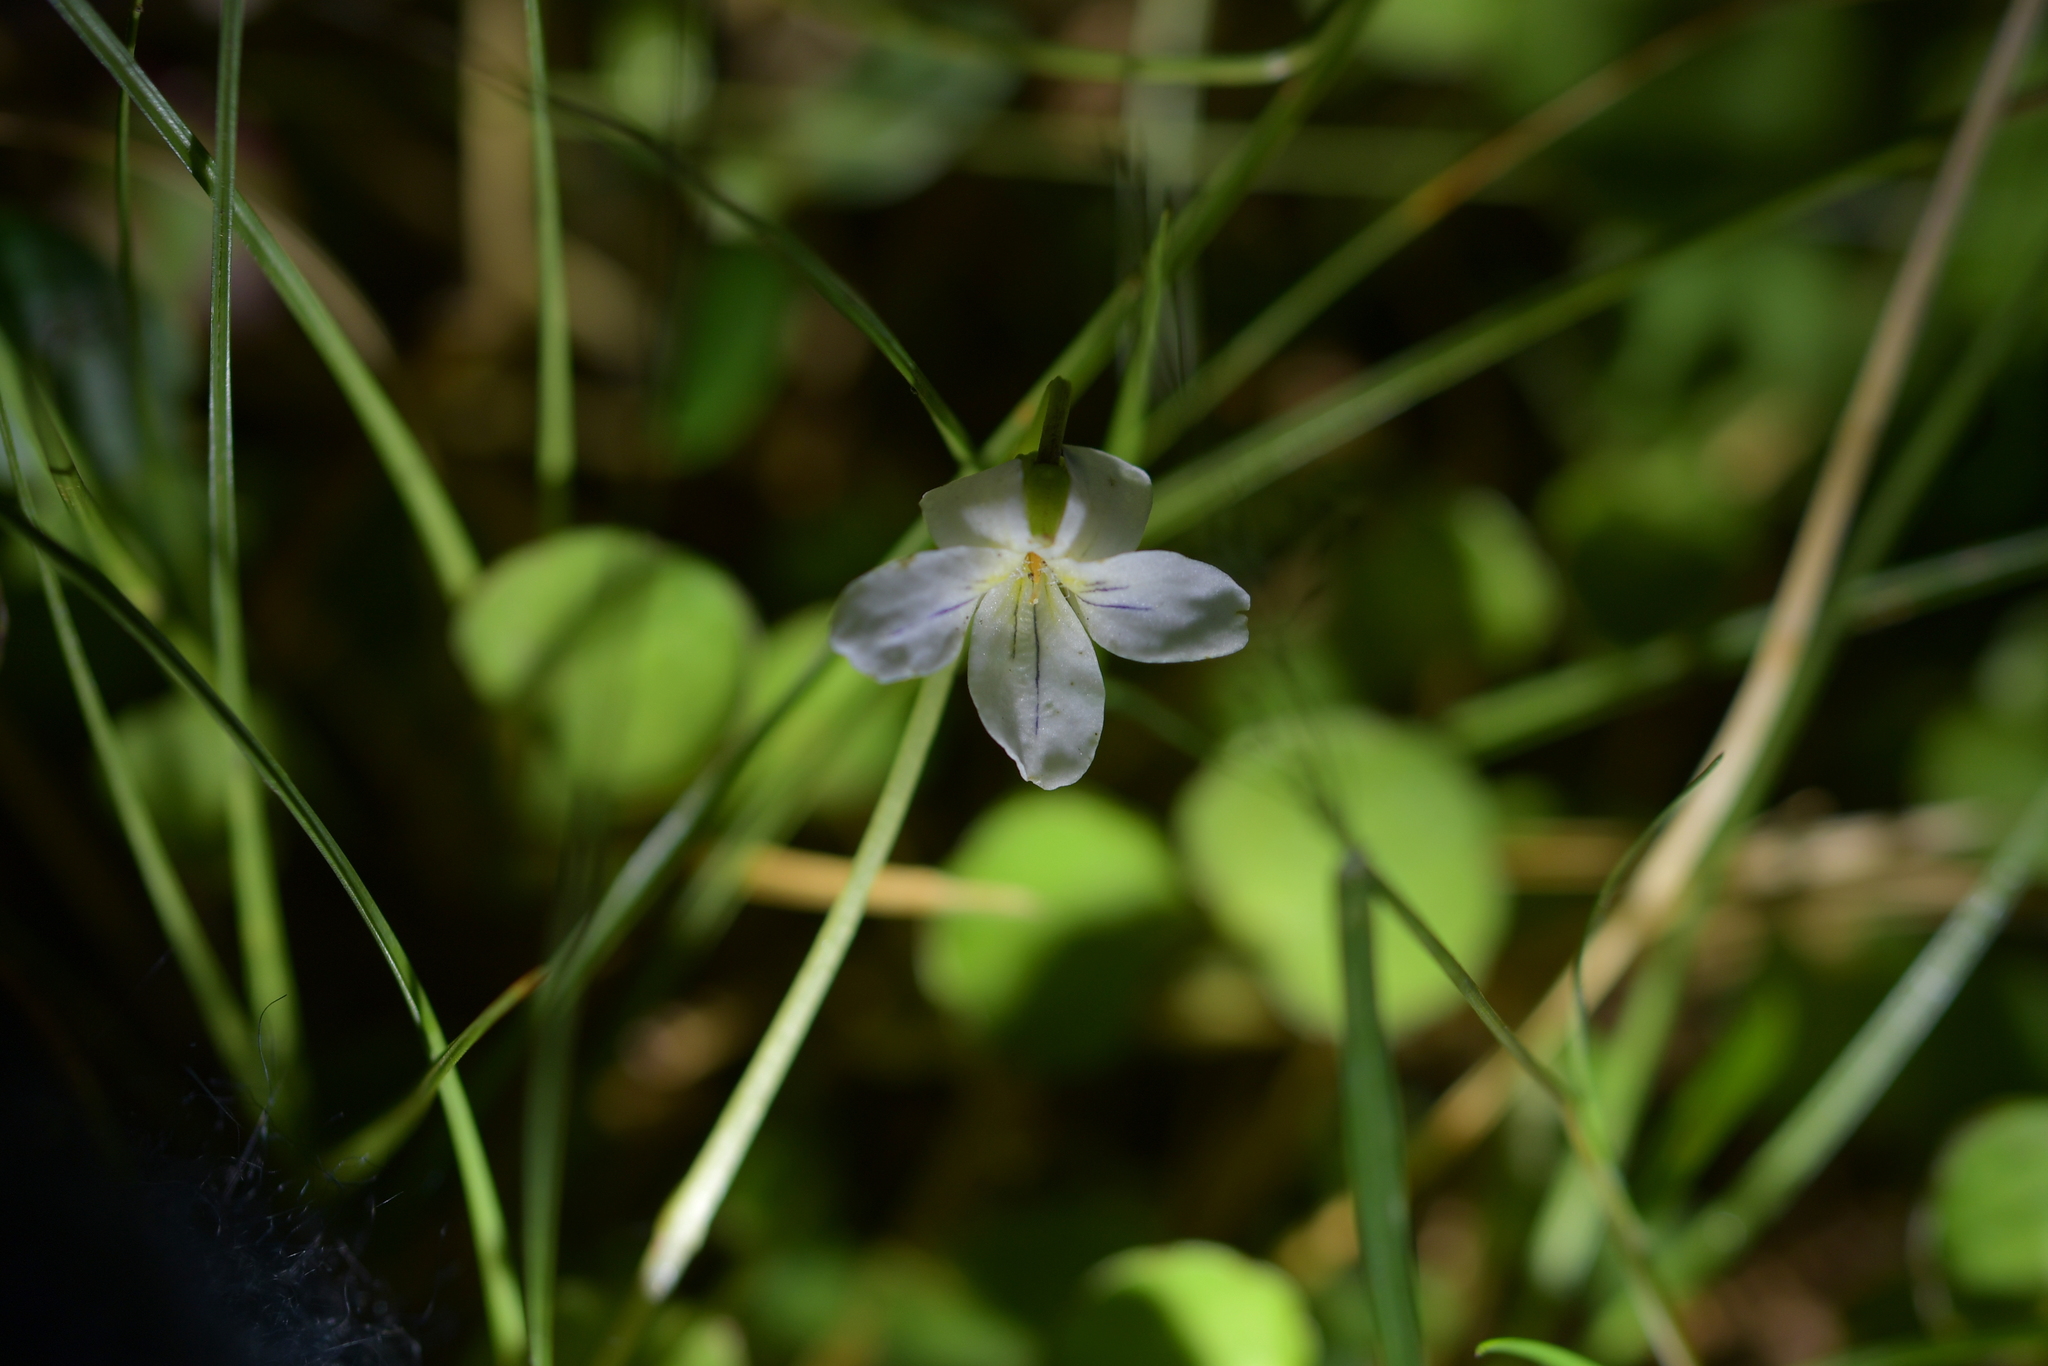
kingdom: Plantae
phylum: Tracheophyta
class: Magnoliopsida
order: Malpighiales
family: Violaceae
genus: Viola
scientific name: Viola filicaulis
